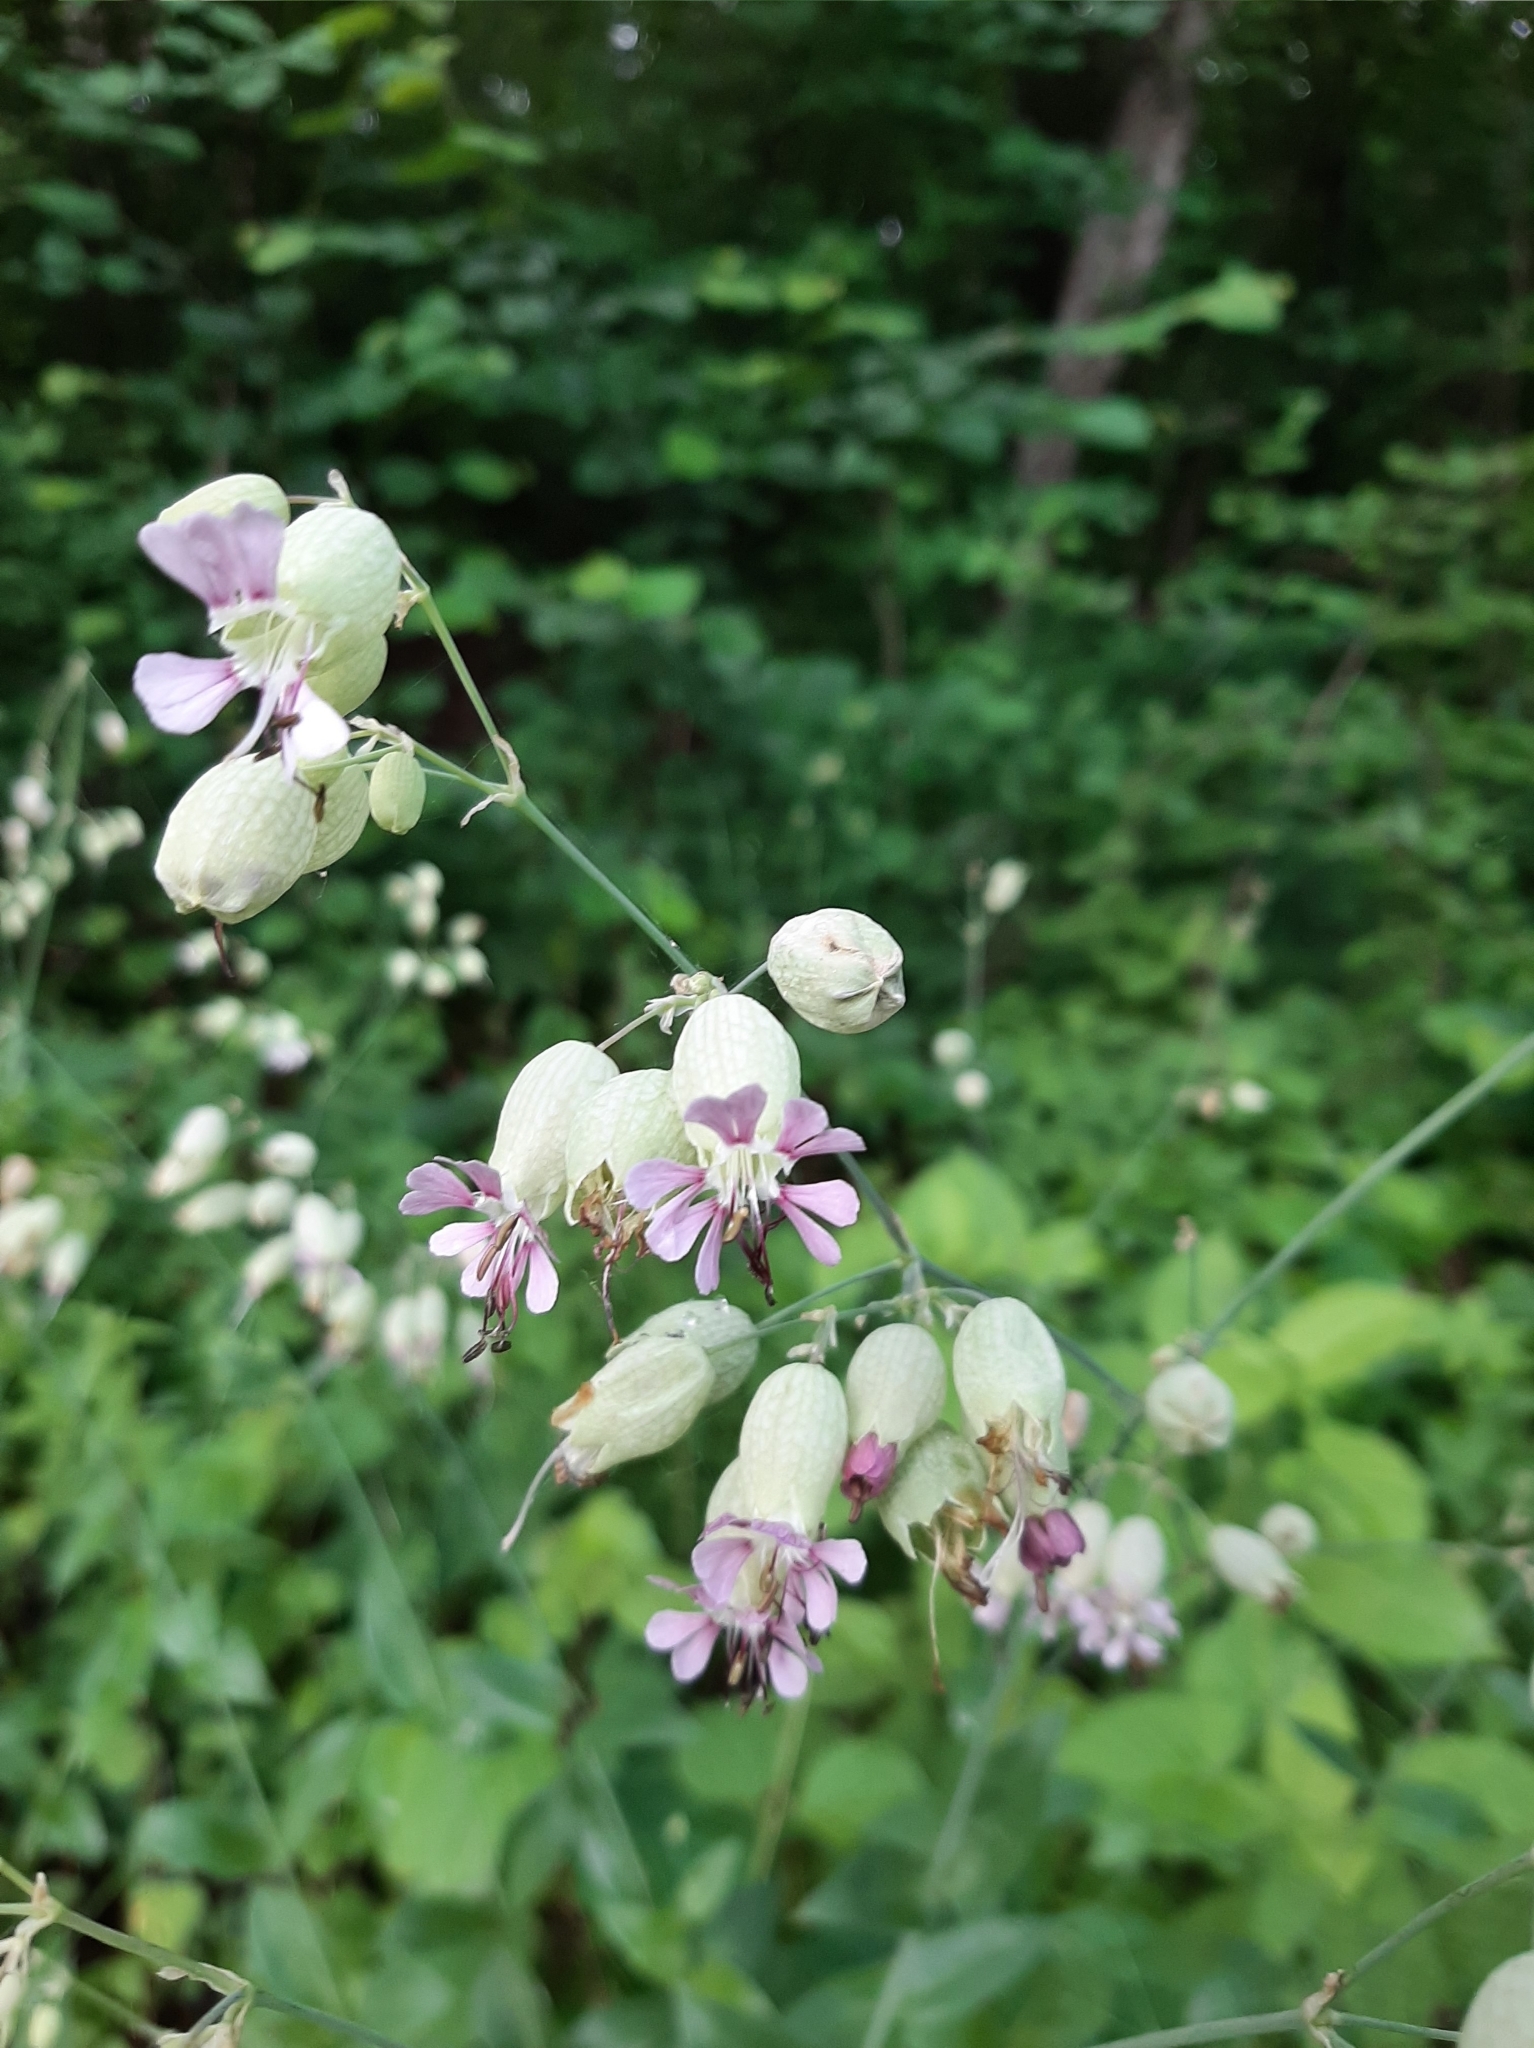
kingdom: Plantae
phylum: Tracheophyta
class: Magnoliopsida
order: Caryophyllales
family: Caryophyllaceae
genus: Silene
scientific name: Silene vulgaris
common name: Bladder campion
